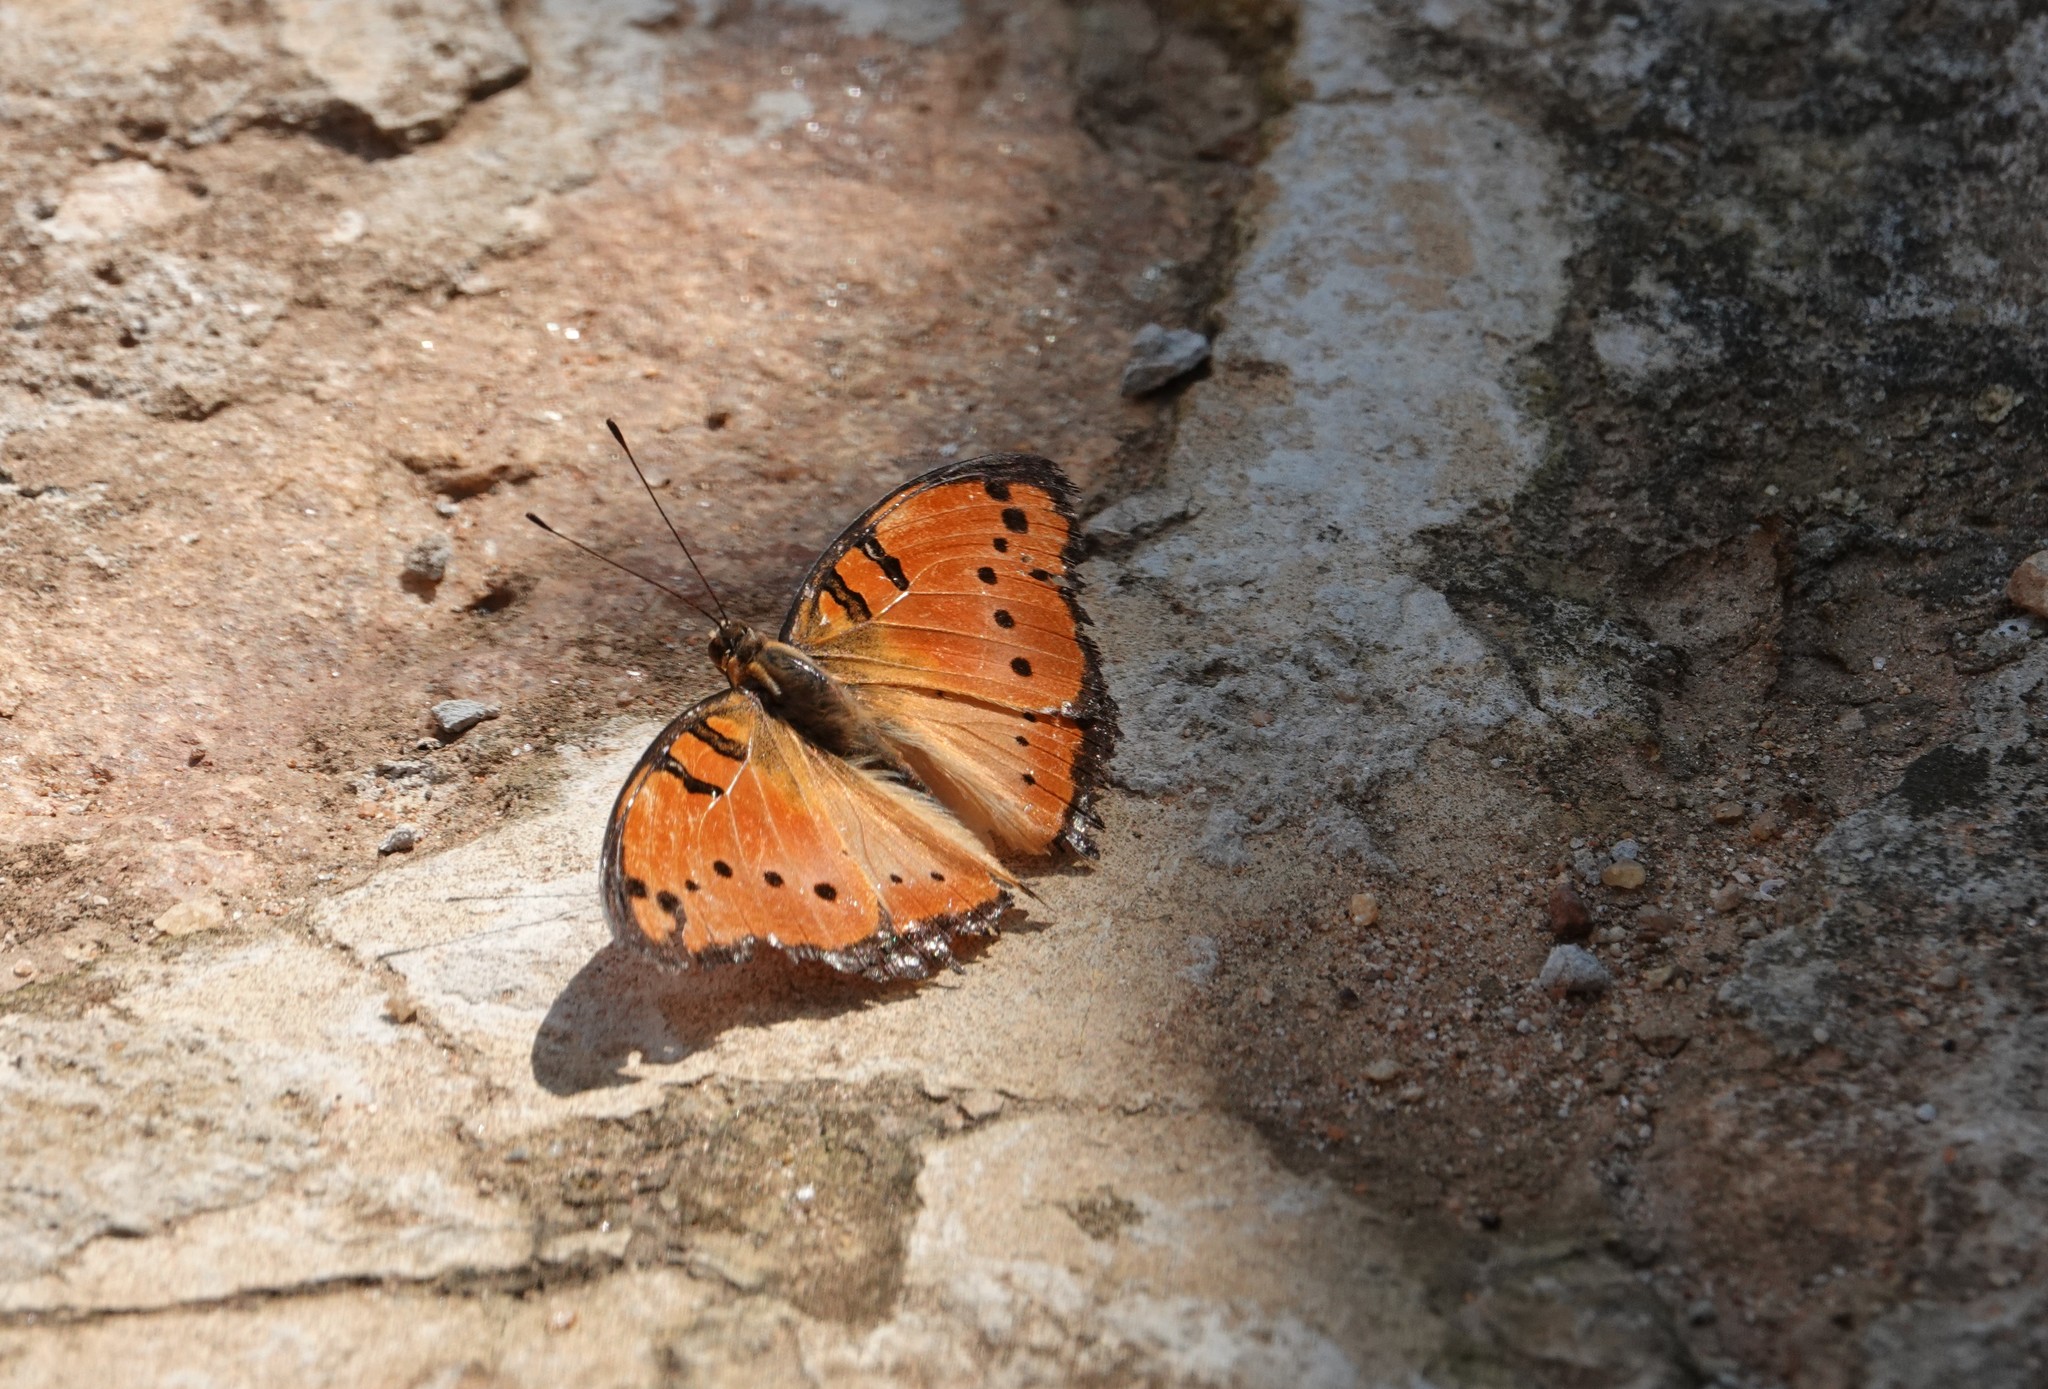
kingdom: Animalia
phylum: Arthropoda
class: Insecta
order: Lepidoptera
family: Nymphalidae
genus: Precis
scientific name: Precis octavia
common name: Gaudy commodore
